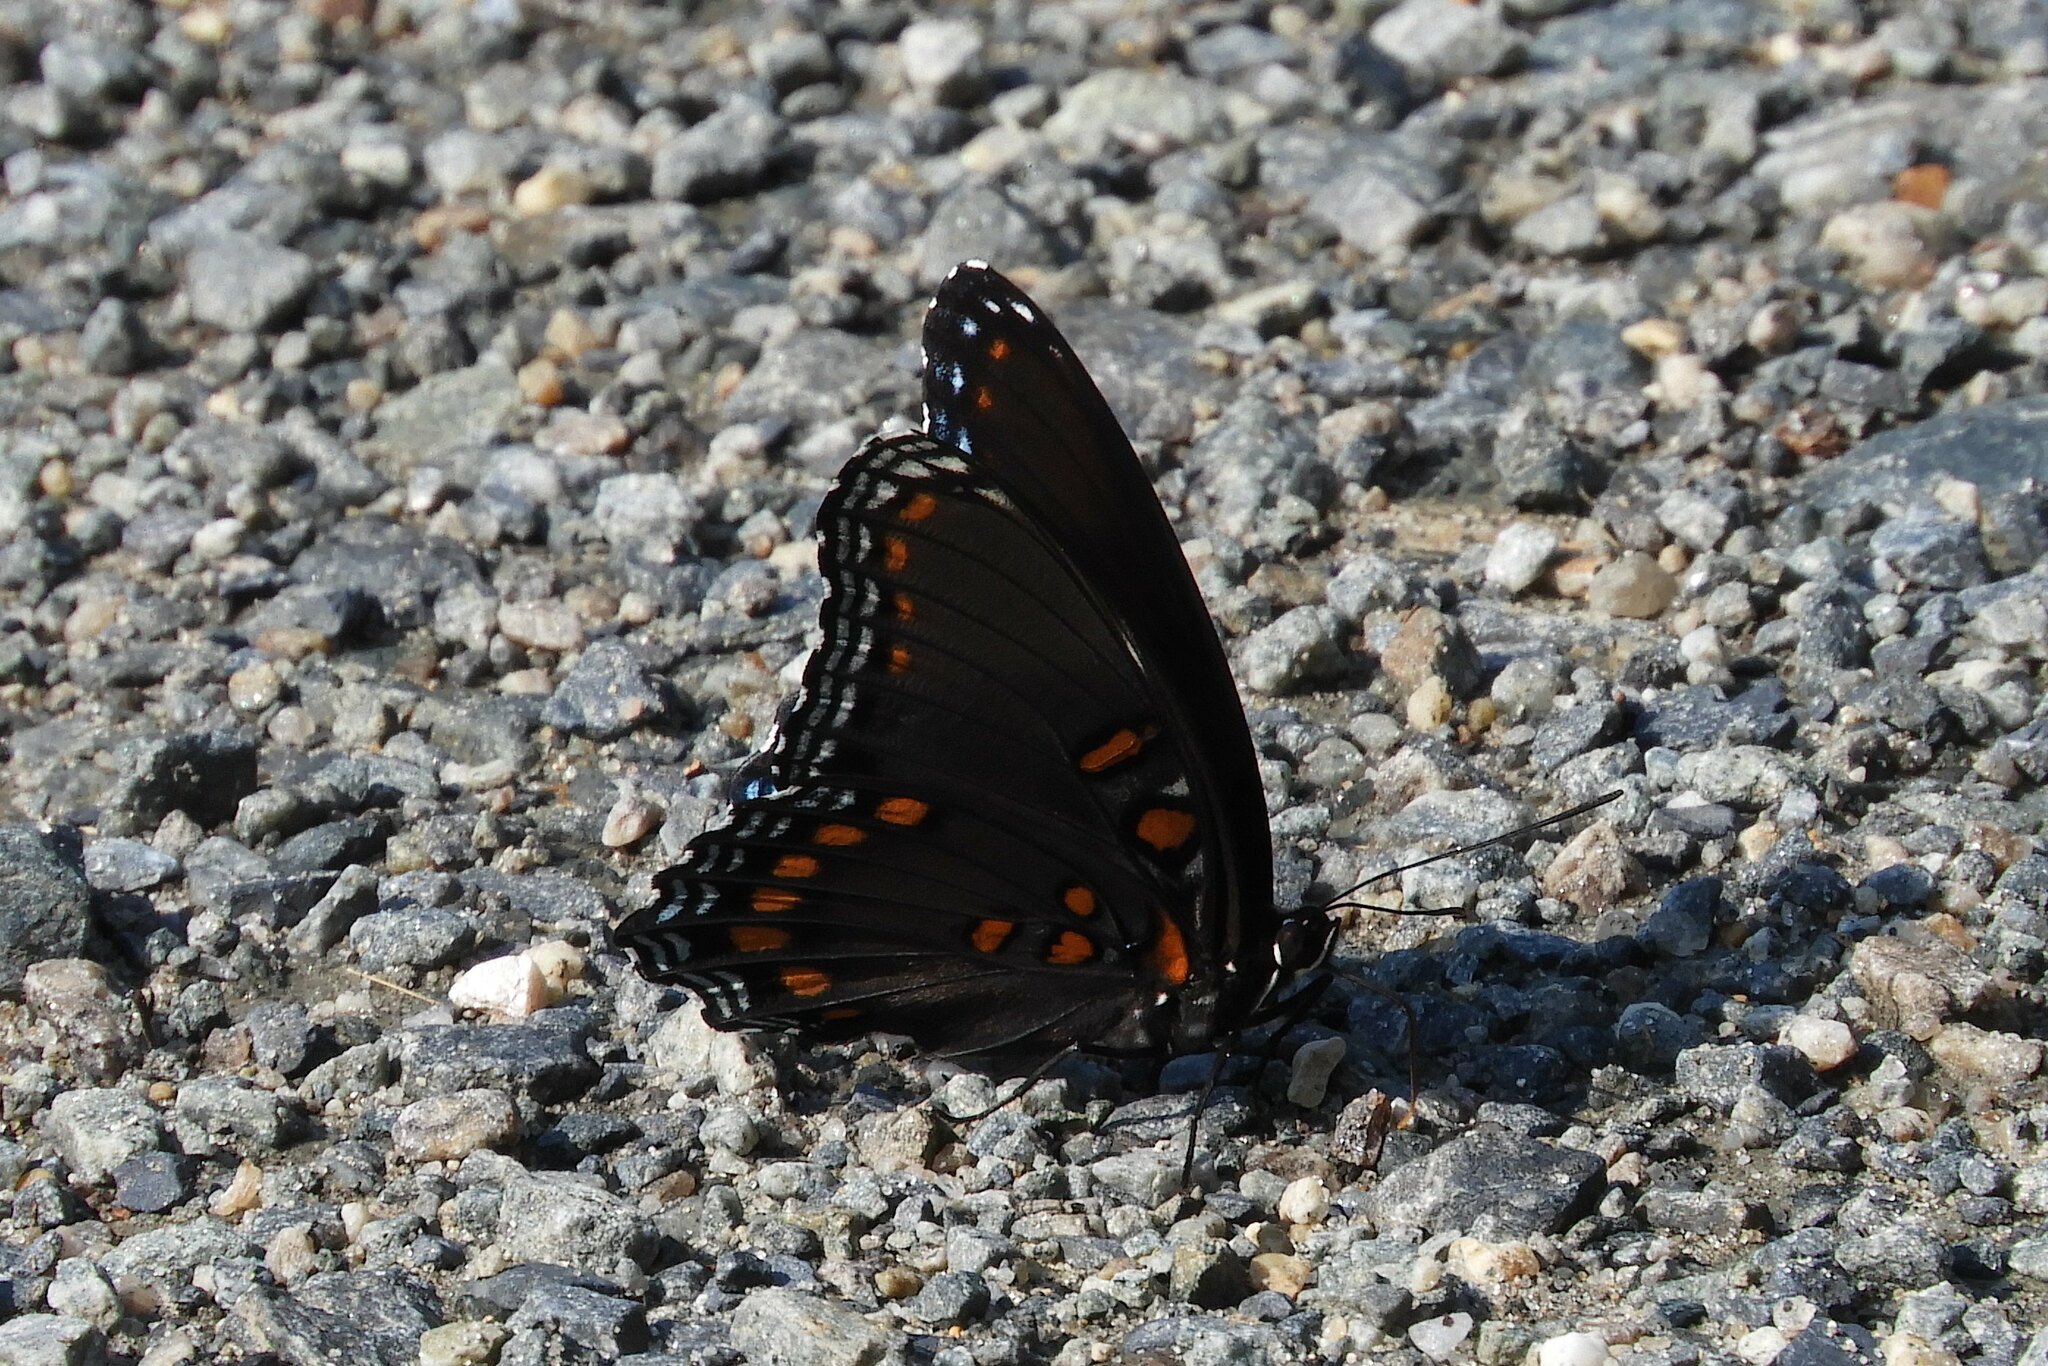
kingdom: Animalia
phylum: Arthropoda
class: Insecta
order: Lepidoptera
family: Nymphalidae
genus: Limenitis
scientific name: Limenitis astyanax
